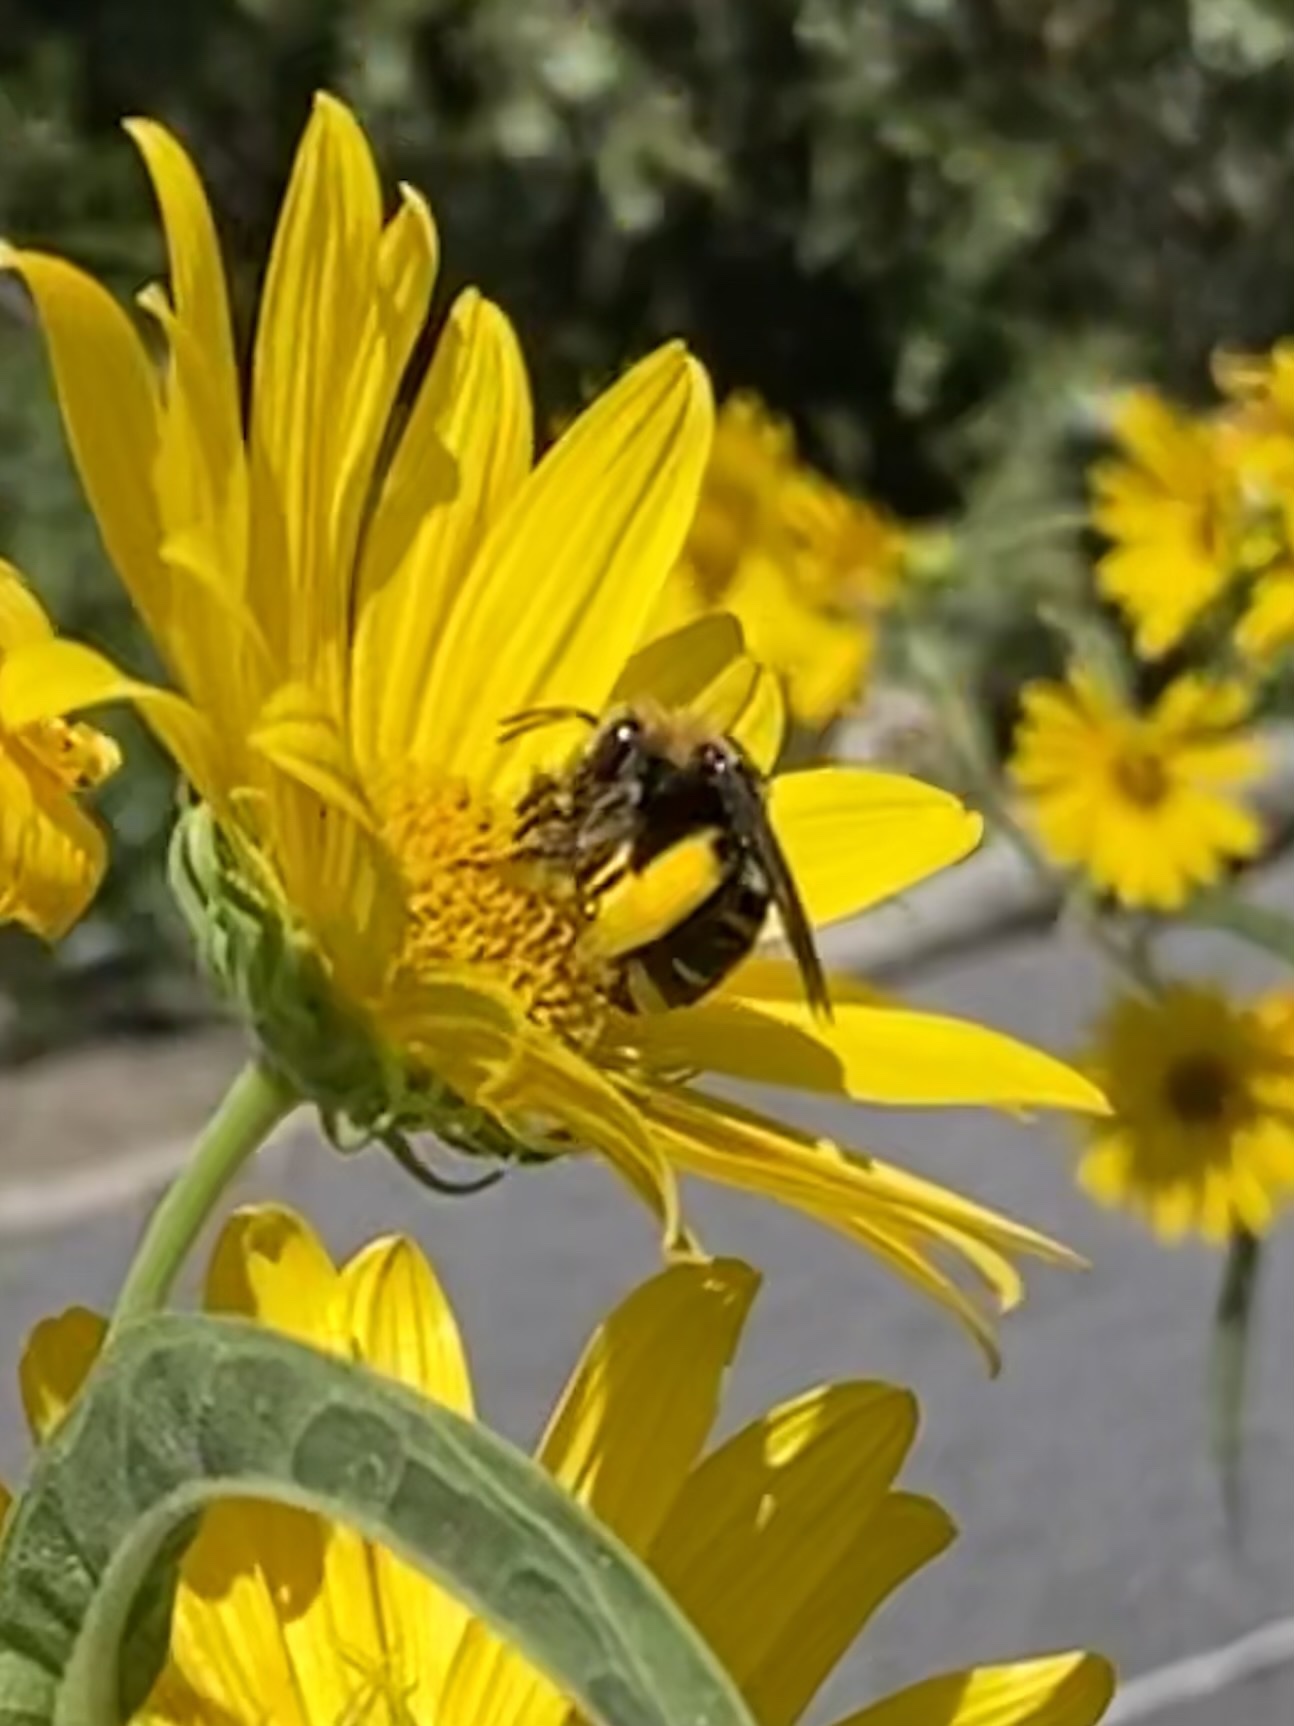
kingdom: Animalia
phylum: Arthropoda
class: Insecta
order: Hymenoptera
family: Apidae
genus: Svastra
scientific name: Svastra obliqua
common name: Oblique longhorn
